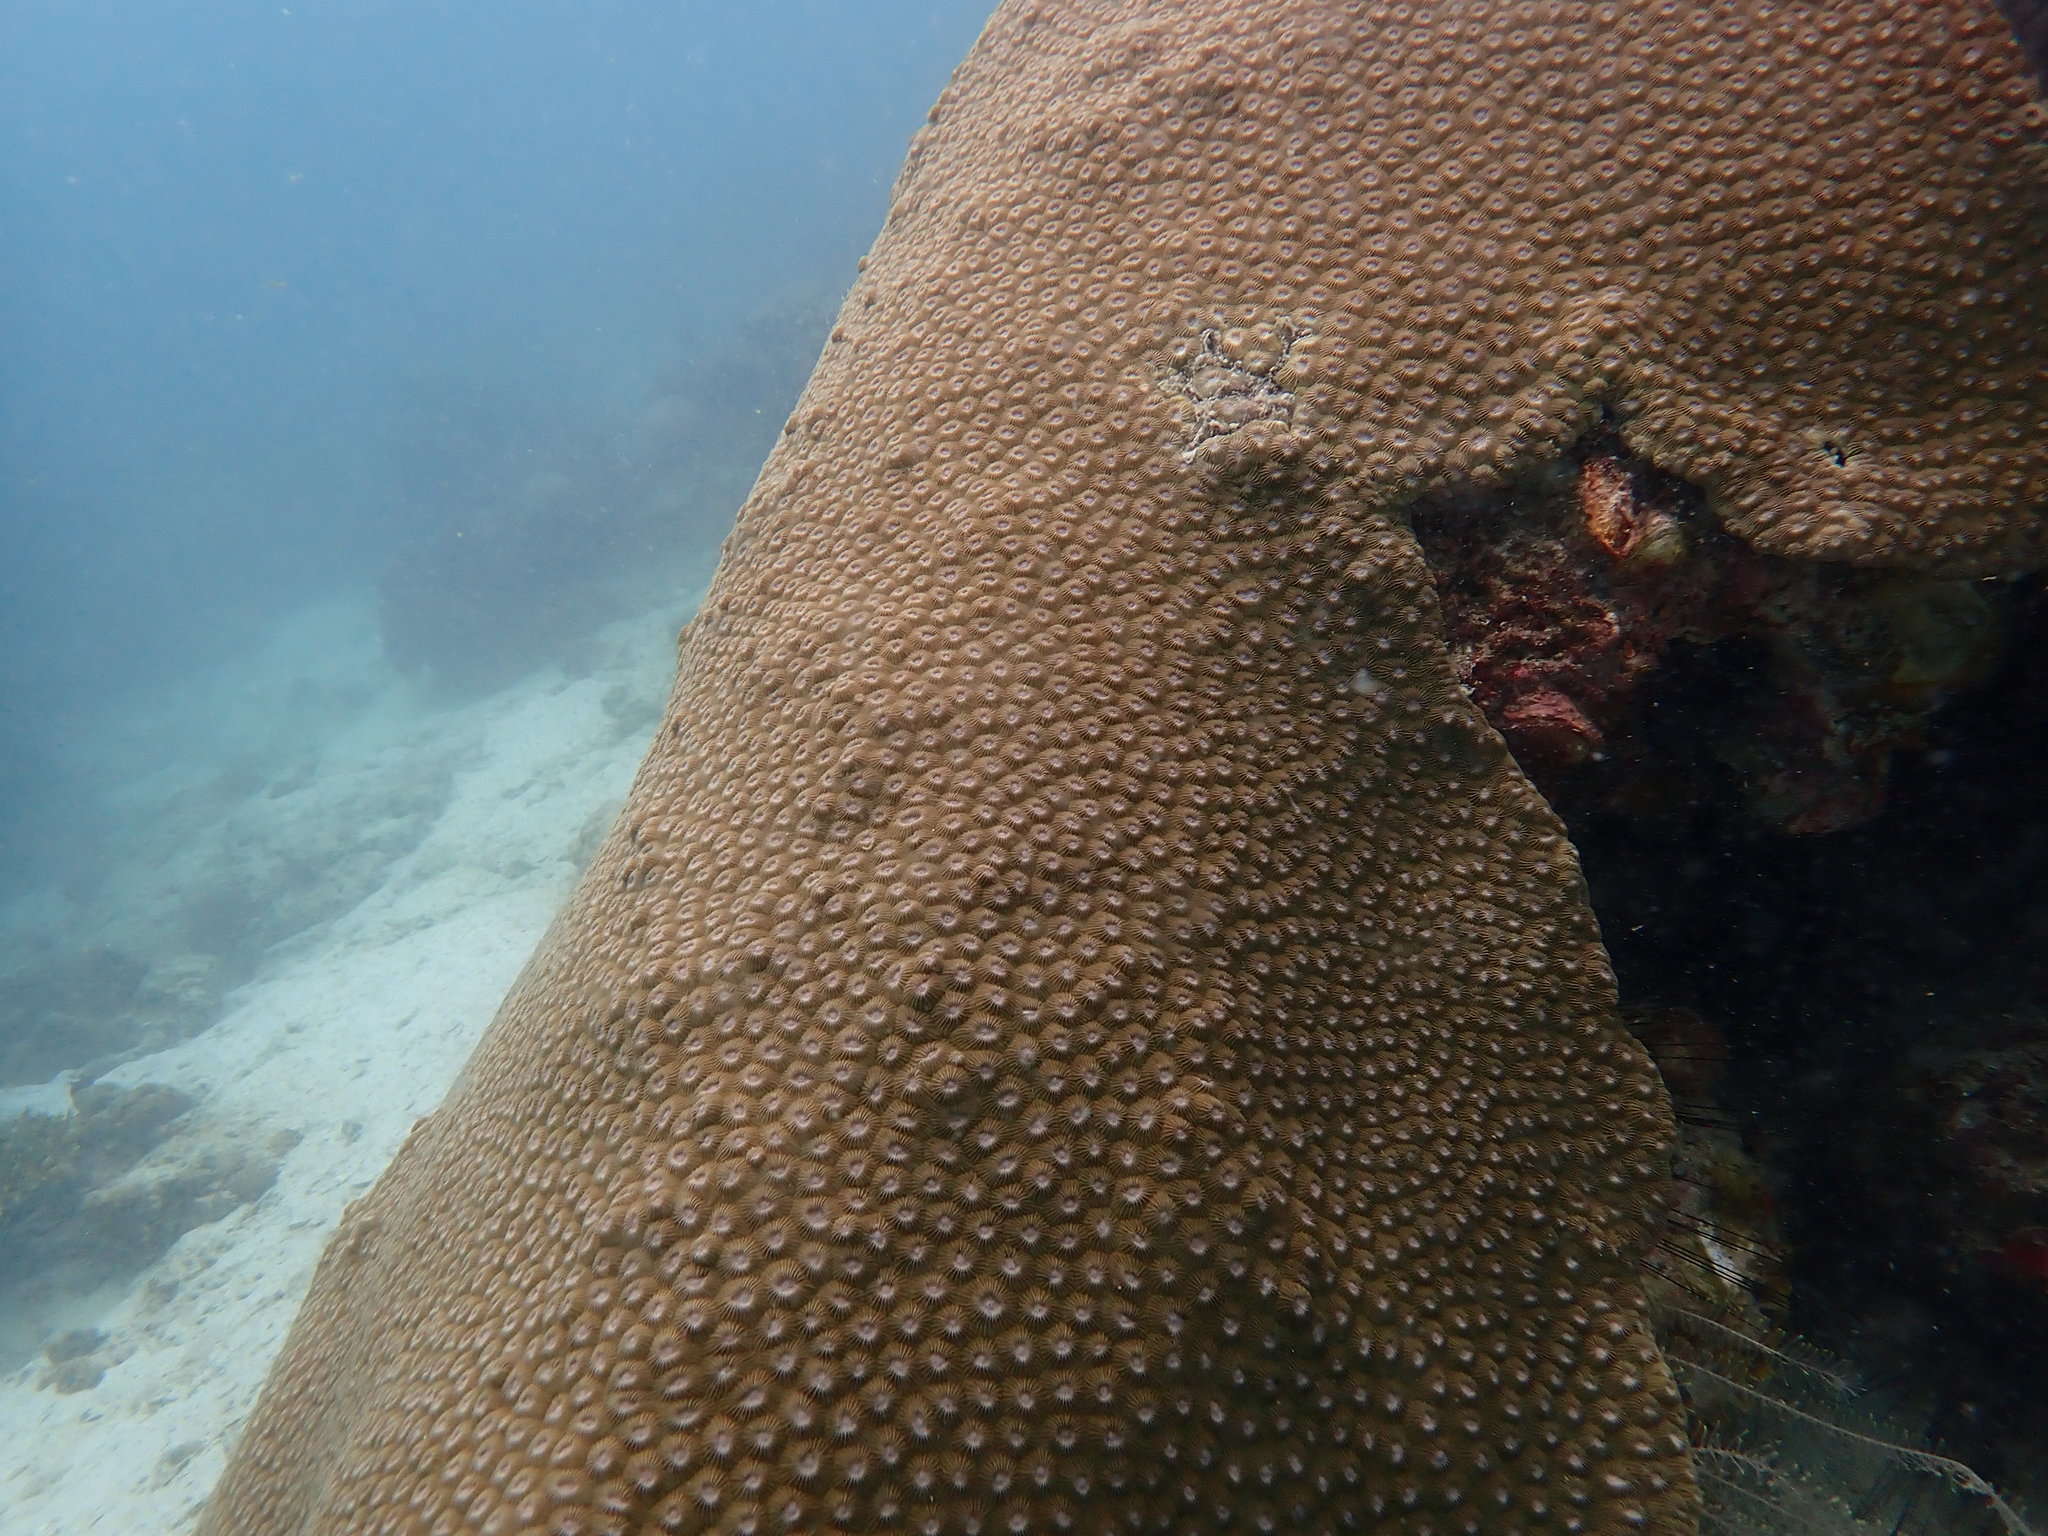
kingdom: Animalia
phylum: Cnidaria
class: Anthozoa
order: Scleractinia
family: Diploastraeidae
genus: Diploastrea
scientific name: Diploastrea heliopora
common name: Double-star coral
